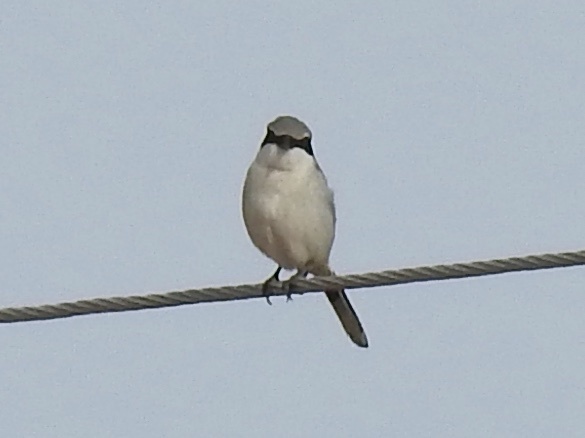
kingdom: Animalia
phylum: Chordata
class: Aves
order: Passeriformes
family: Laniidae
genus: Lanius
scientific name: Lanius ludovicianus
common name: Loggerhead shrike
